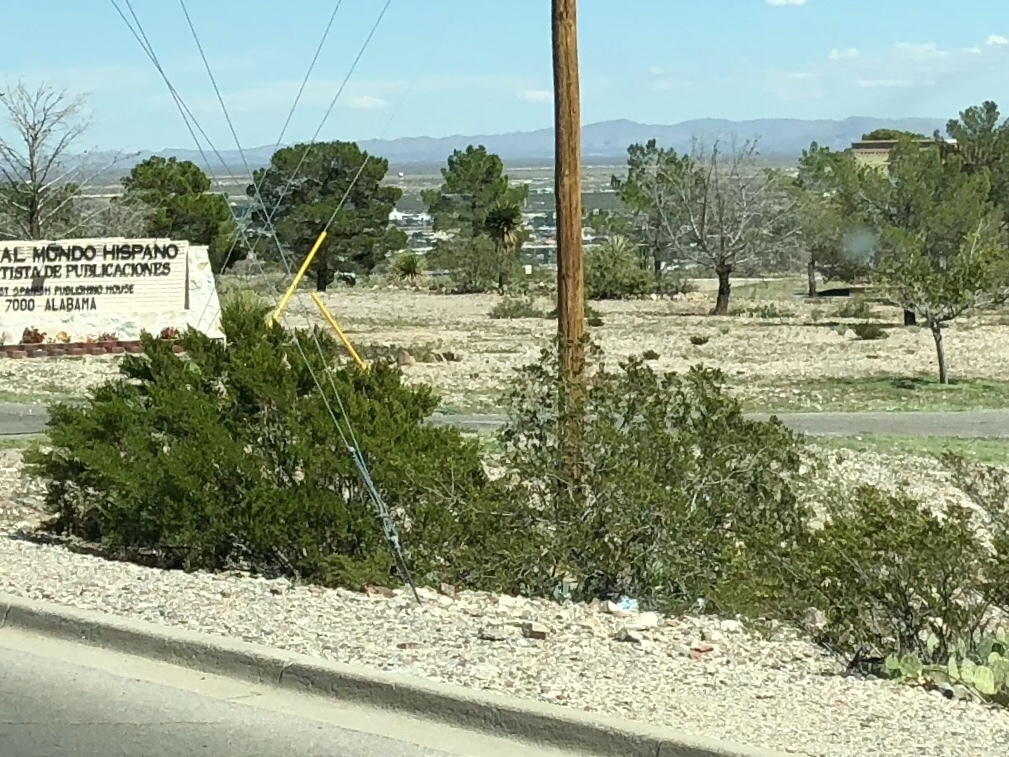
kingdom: Plantae
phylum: Tracheophyta
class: Magnoliopsida
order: Zygophyllales
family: Zygophyllaceae
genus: Larrea
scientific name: Larrea tridentata
